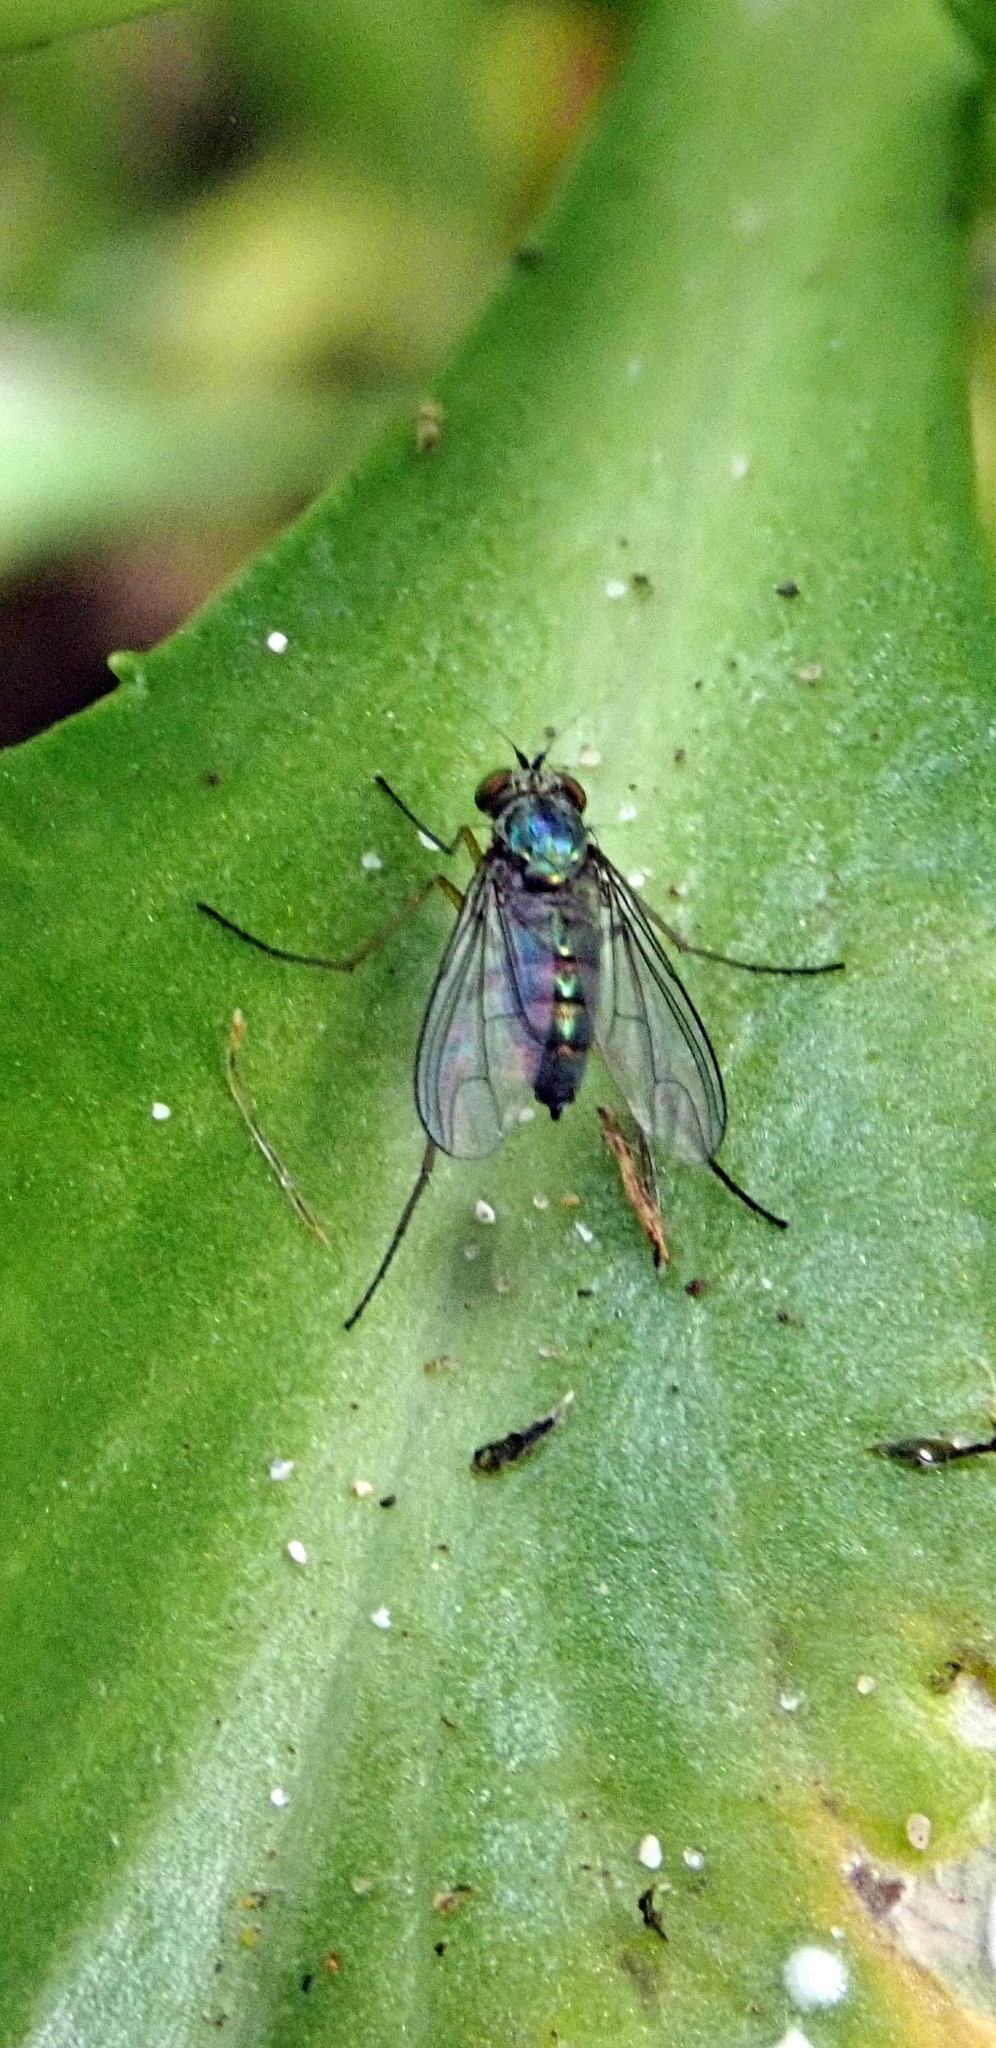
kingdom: Animalia
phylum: Arthropoda
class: Insecta
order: Diptera
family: Dolichopodidae
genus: Parentia
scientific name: Parentia chathamensis
